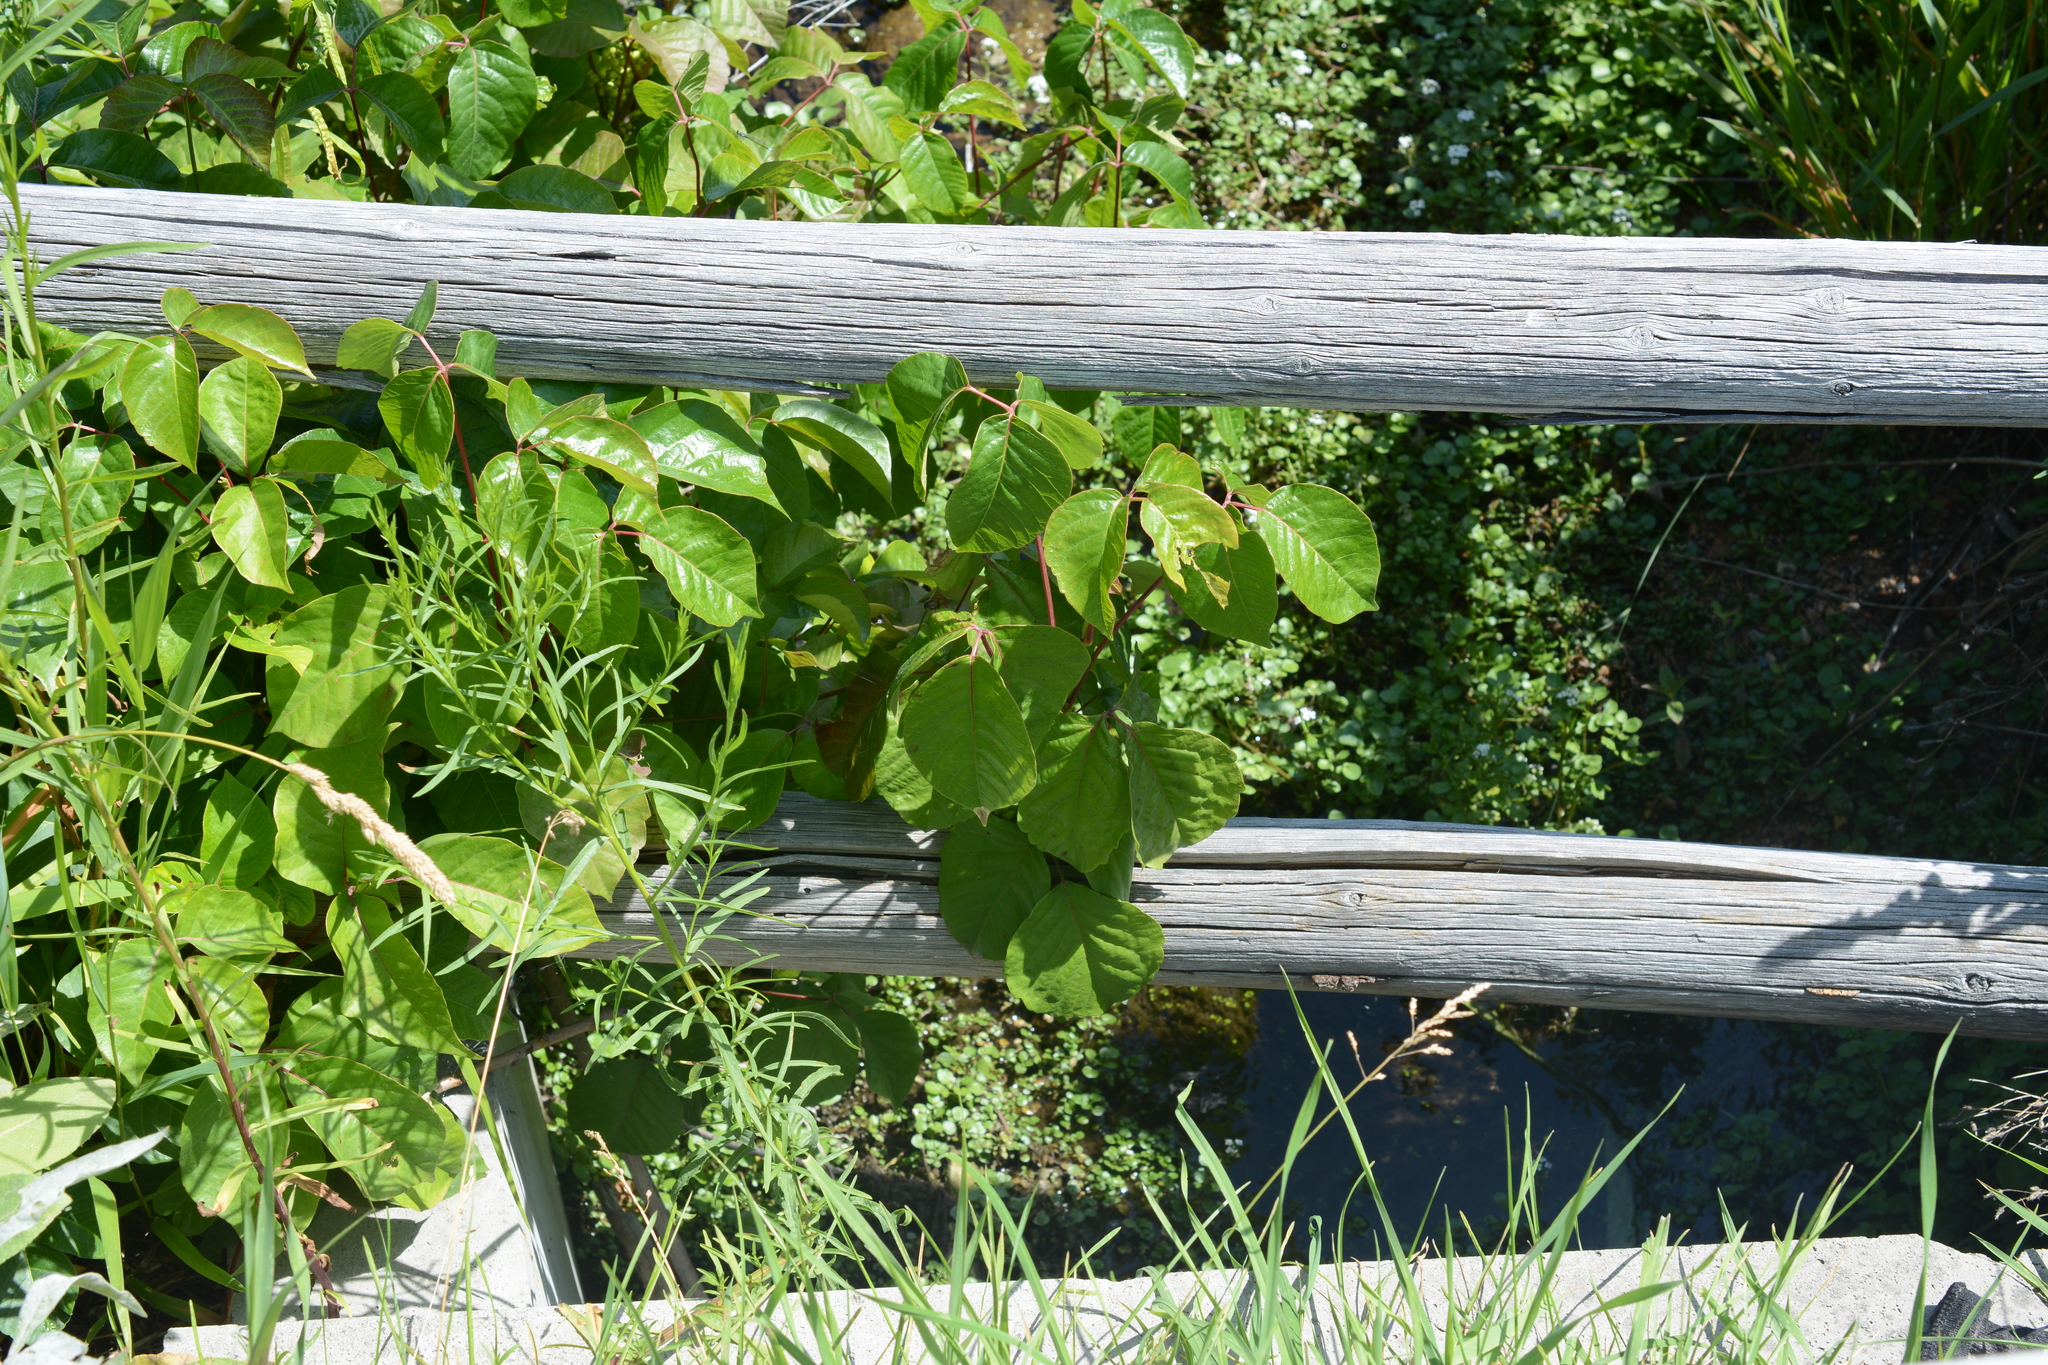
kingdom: Plantae
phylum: Tracheophyta
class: Magnoliopsida
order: Sapindales
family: Anacardiaceae
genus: Toxicodendron
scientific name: Toxicodendron rydbergii
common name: Rydberg's poison-ivy
